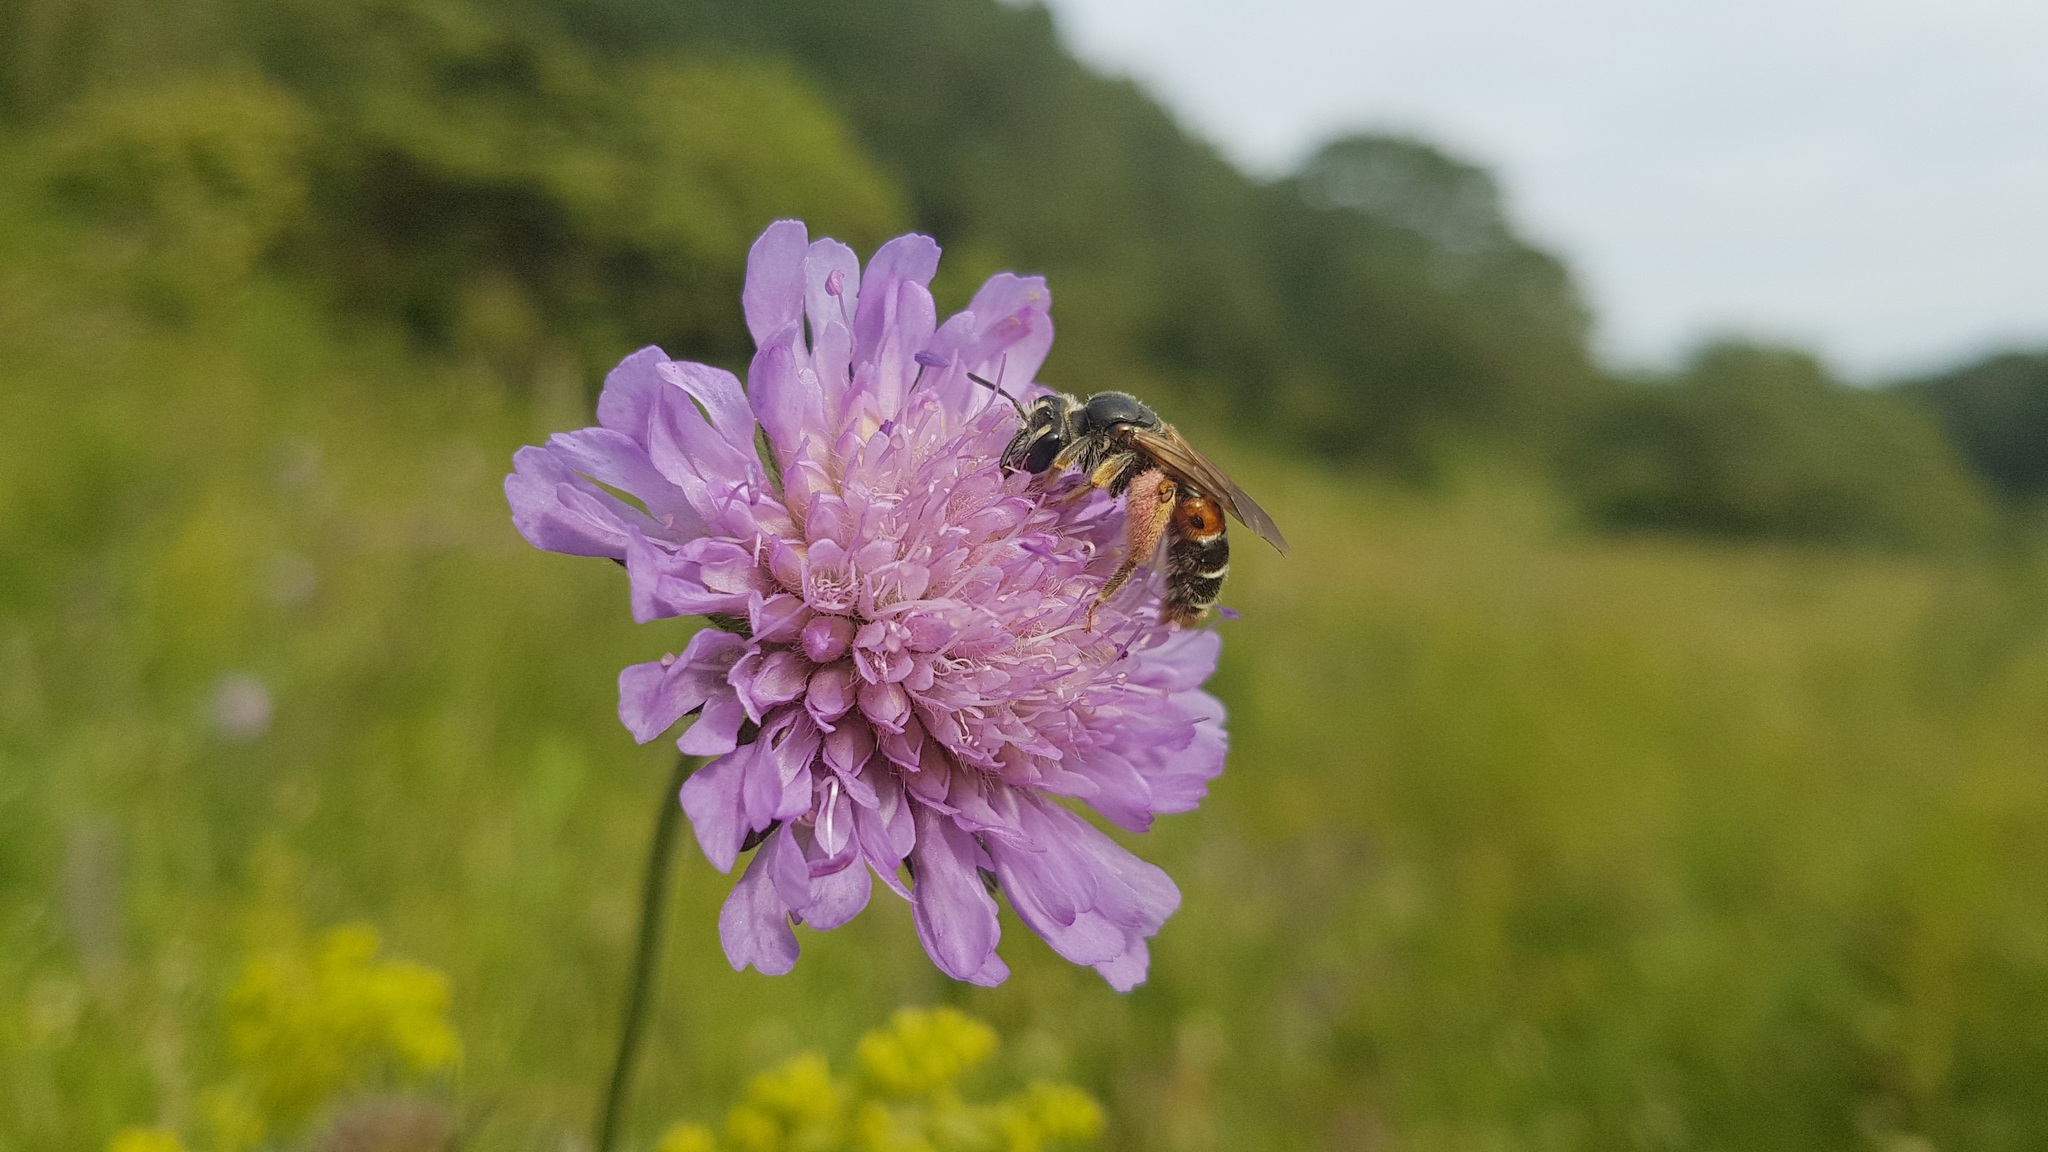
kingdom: Animalia
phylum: Arthropoda
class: Insecta
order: Hymenoptera
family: Andrenidae
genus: Andrena
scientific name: Andrena hattorfiana
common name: Large scabious mining bee
